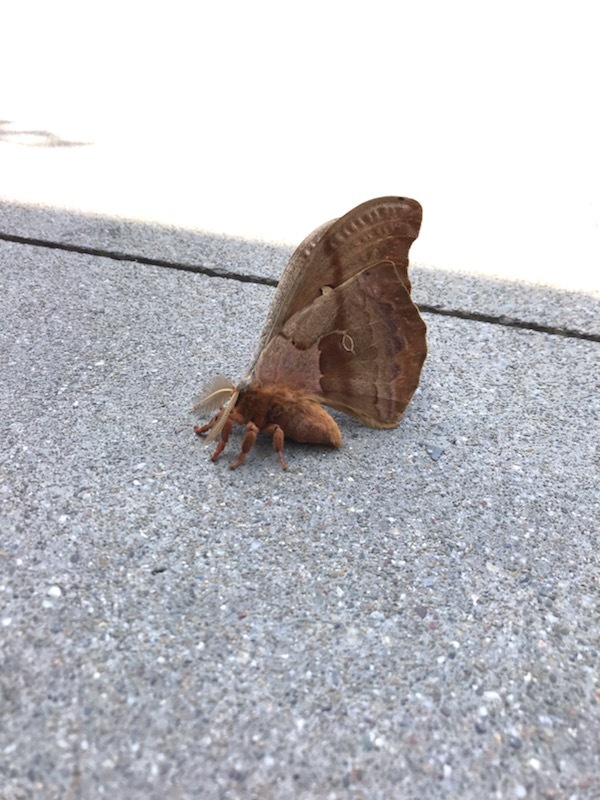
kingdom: Animalia
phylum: Arthropoda
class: Insecta
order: Lepidoptera
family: Saturniidae
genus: Antheraea
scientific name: Antheraea polyphemus
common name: Polyphemus moth
